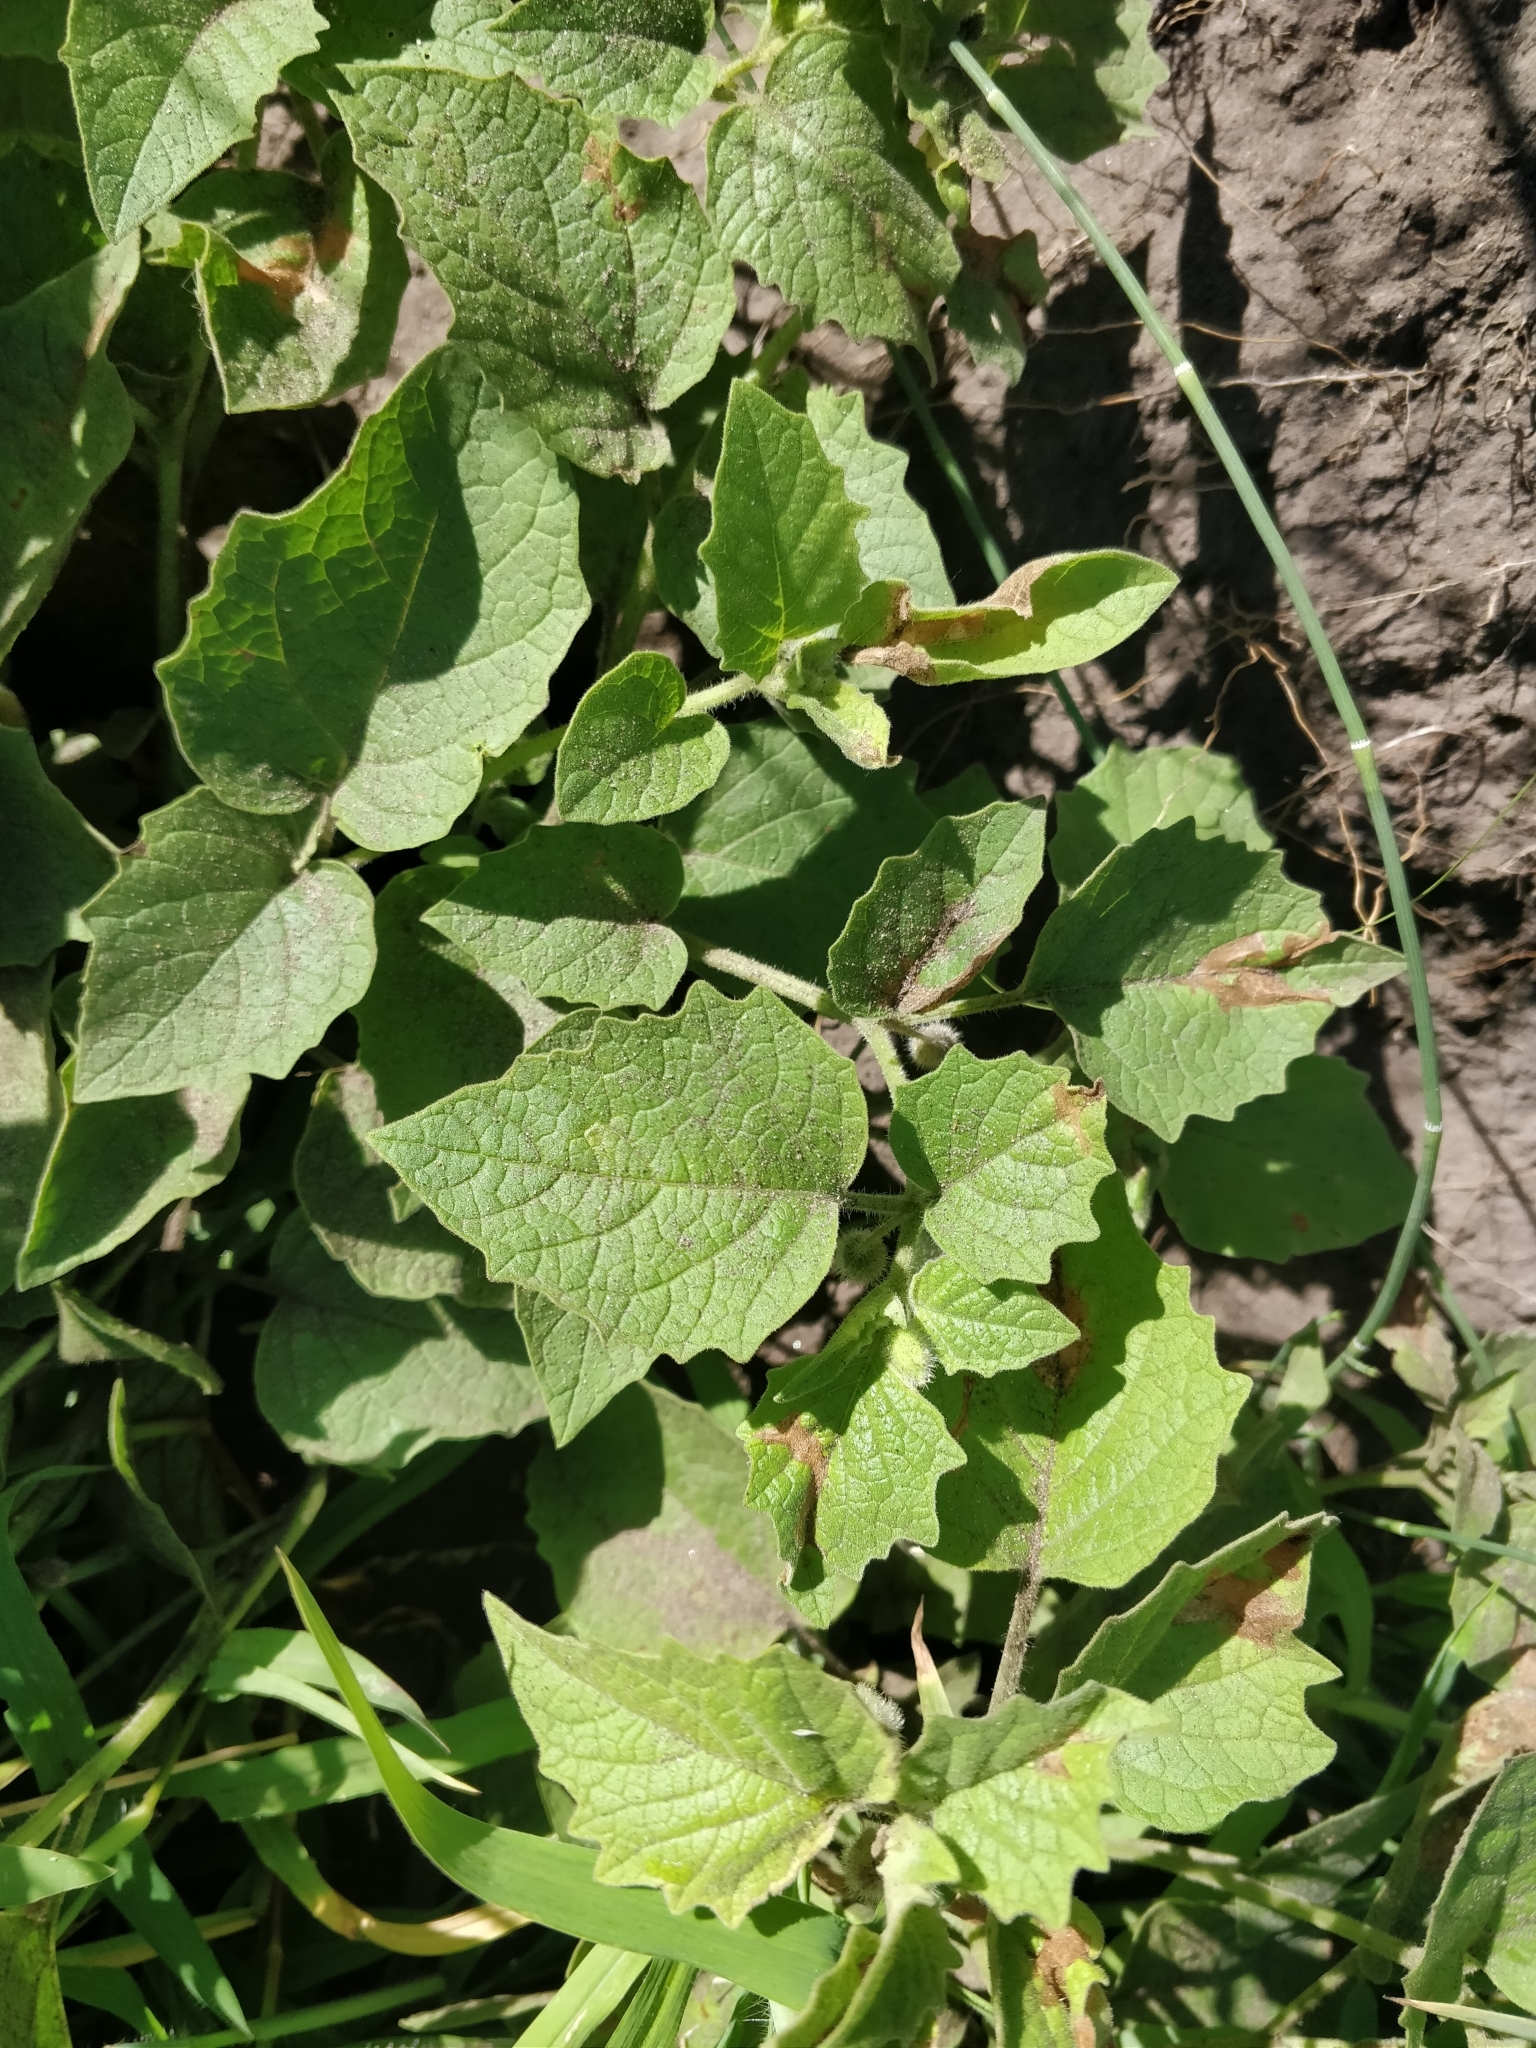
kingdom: Plantae
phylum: Tracheophyta
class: Magnoliopsida
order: Solanales
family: Solanaceae
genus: Physalis
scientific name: Physalis heterophylla
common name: Clammy ground-cherry
